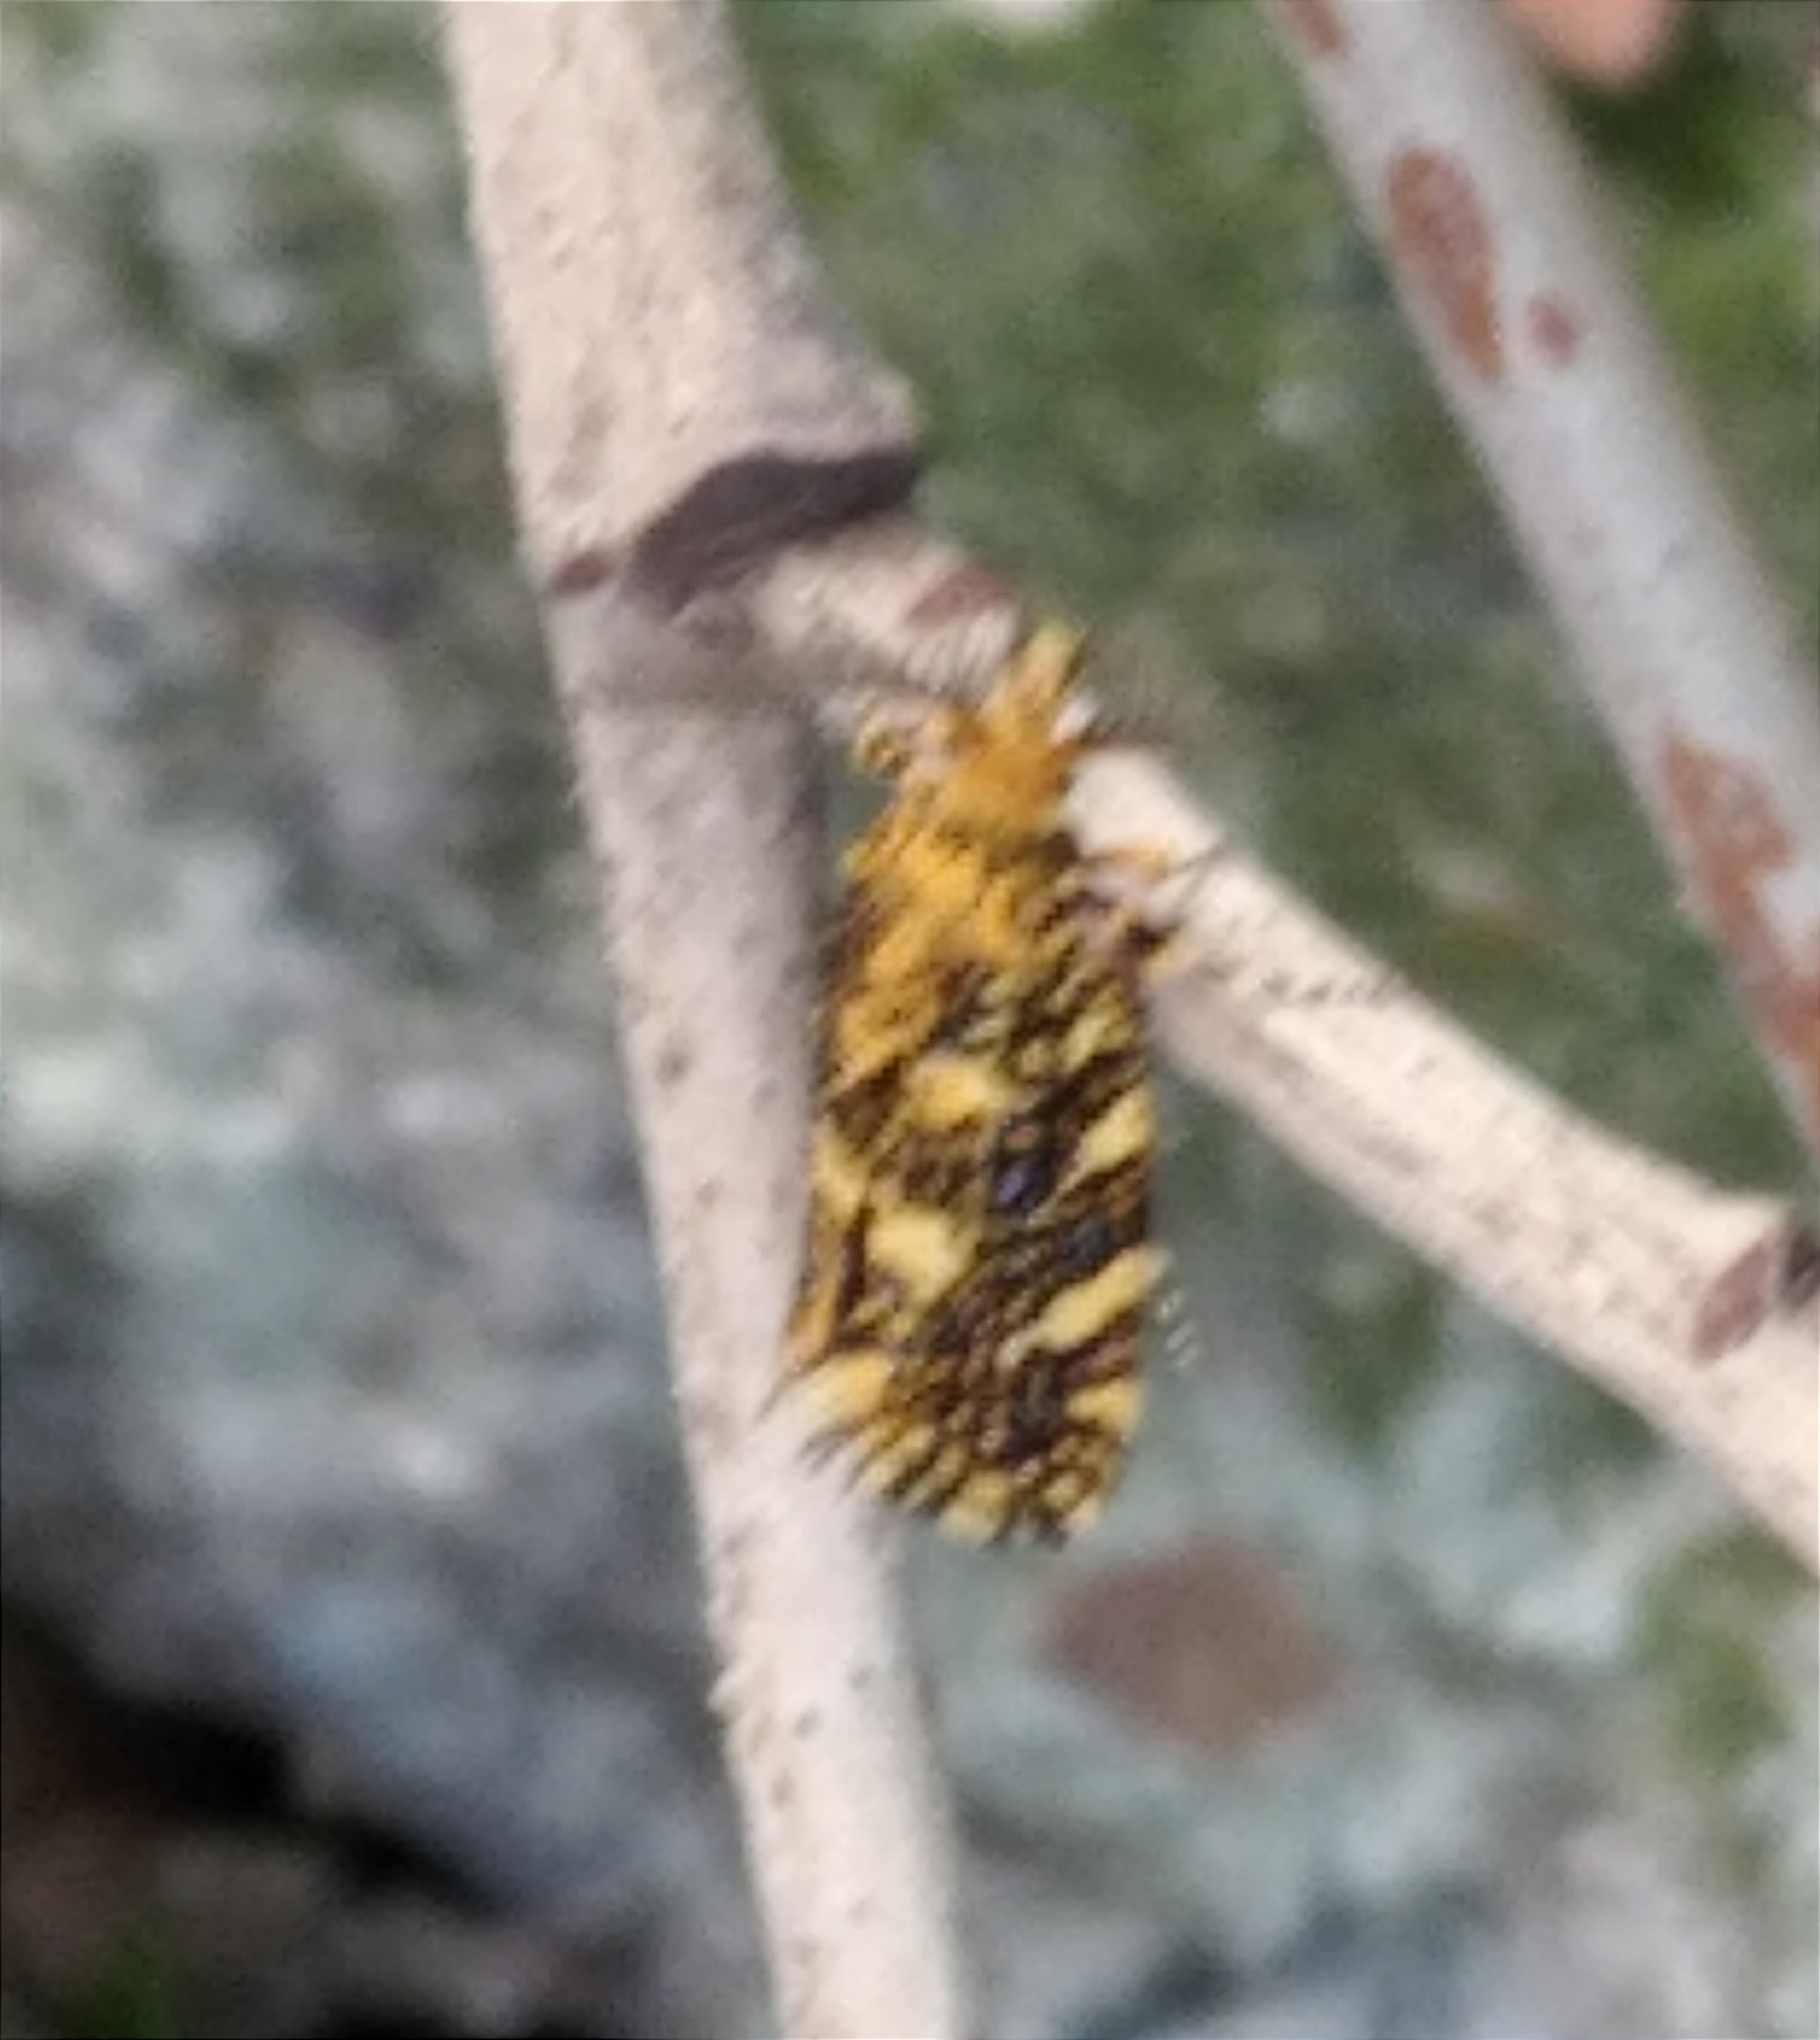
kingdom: Animalia
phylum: Arthropoda
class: Insecta
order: Lepidoptera
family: Tineidae
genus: Euplocamus
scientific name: Euplocamus ophisa
